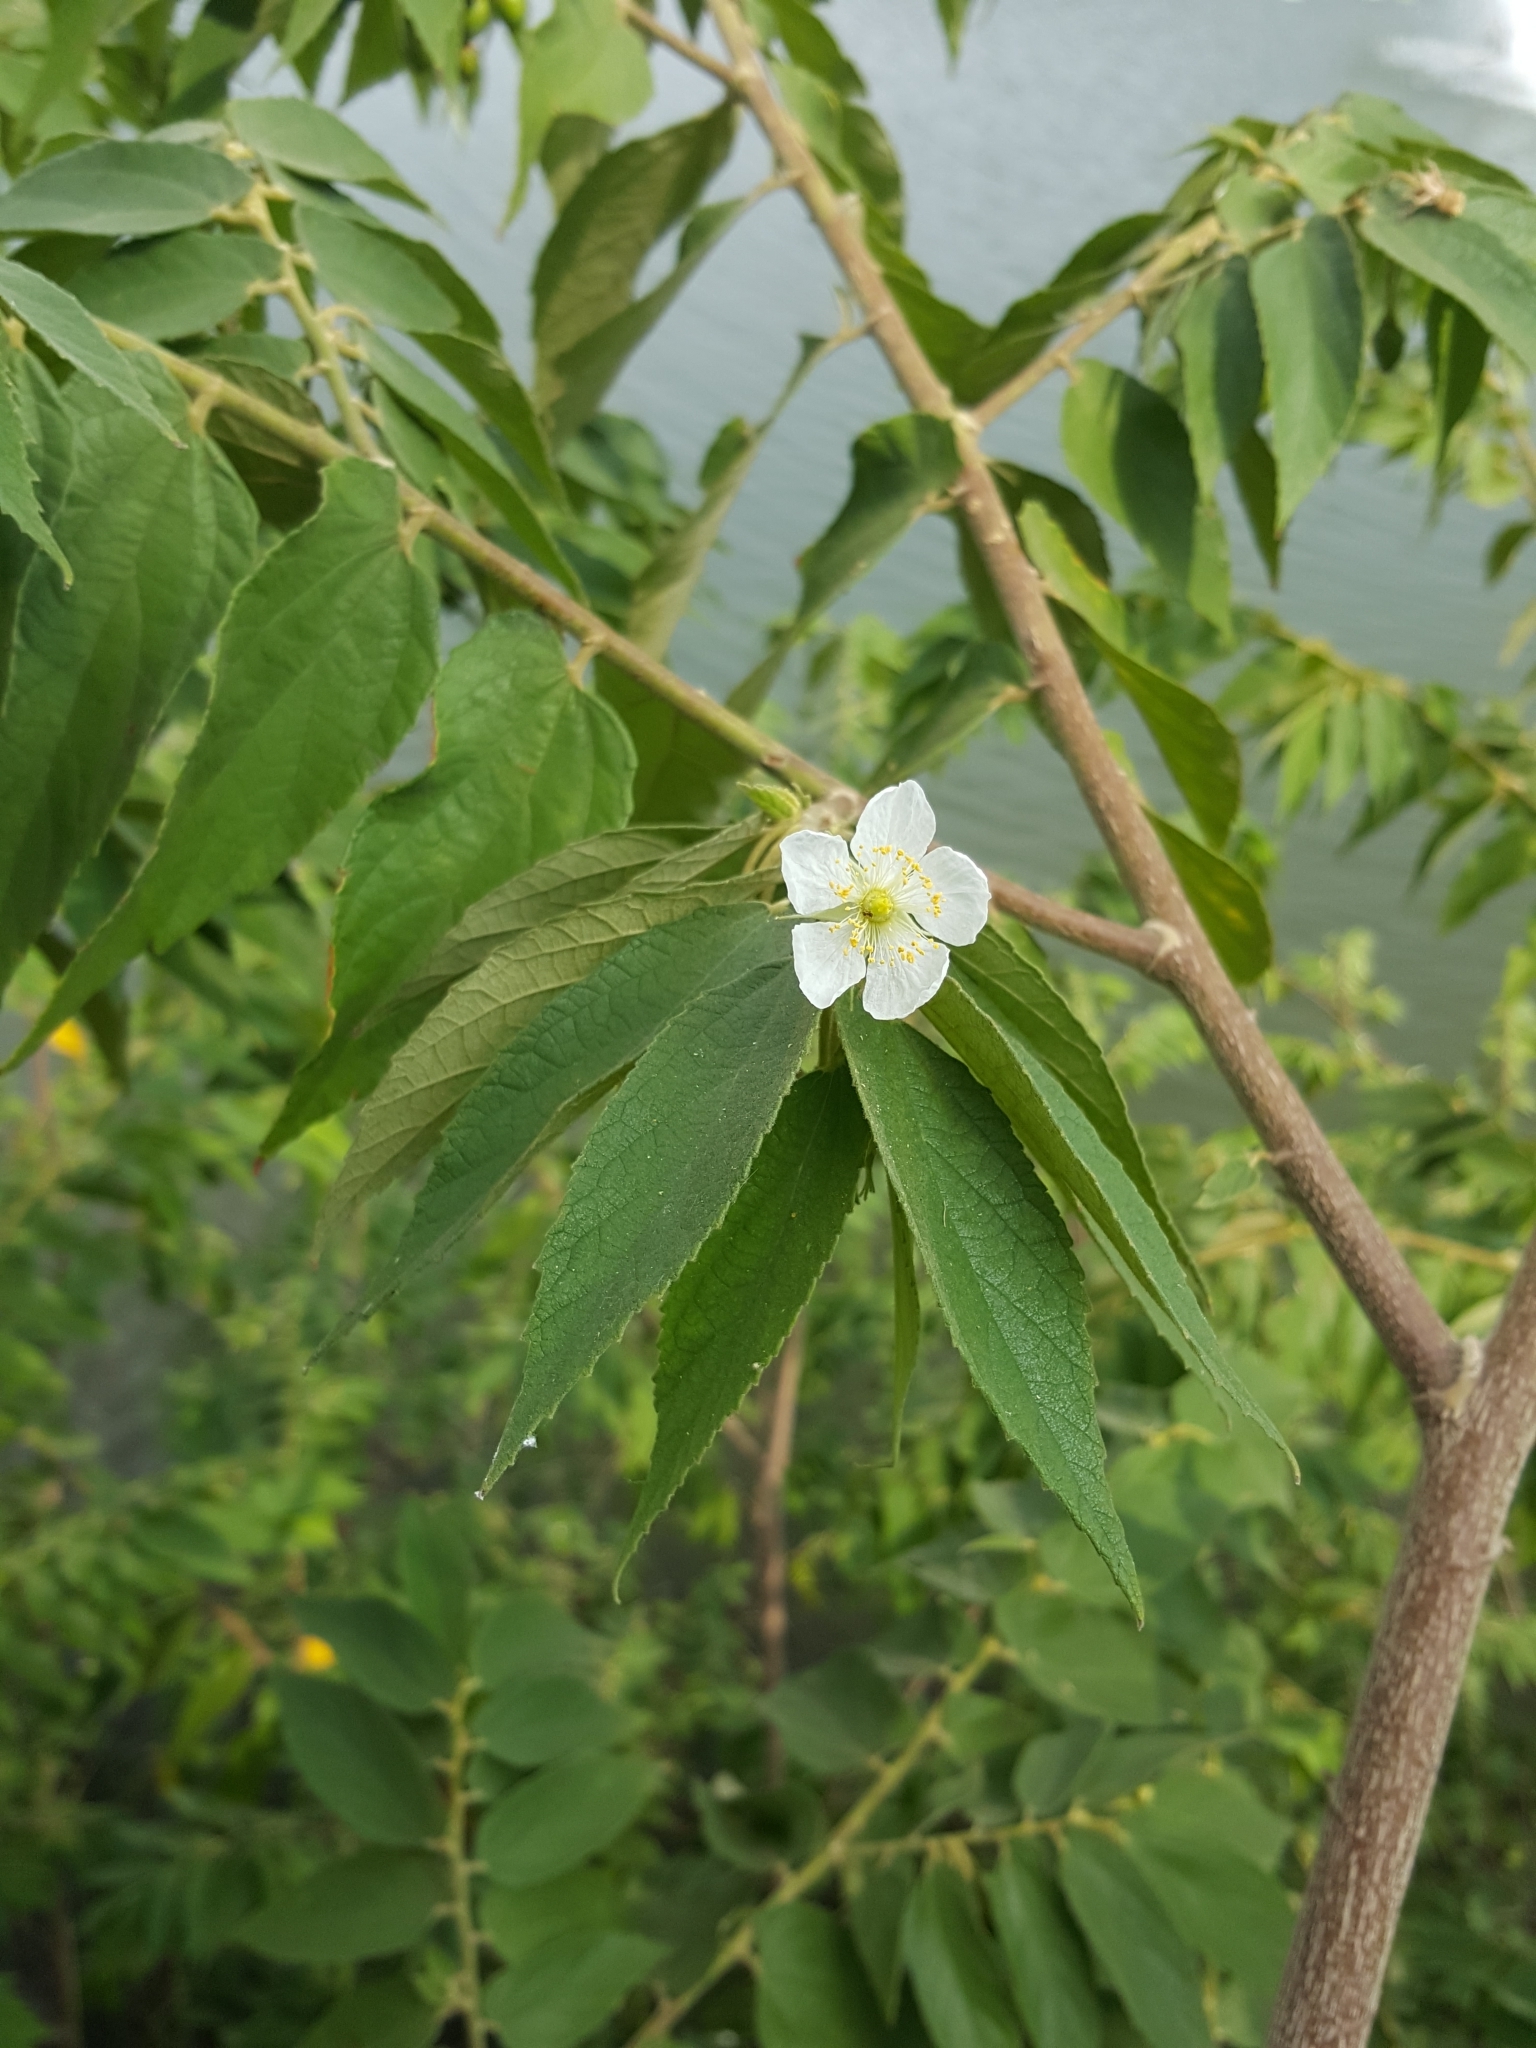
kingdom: Plantae
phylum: Tracheophyta
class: Magnoliopsida
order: Malvales
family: Muntingiaceae
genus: Muntingia
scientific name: Muntingia calabura
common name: Strawberrytree
